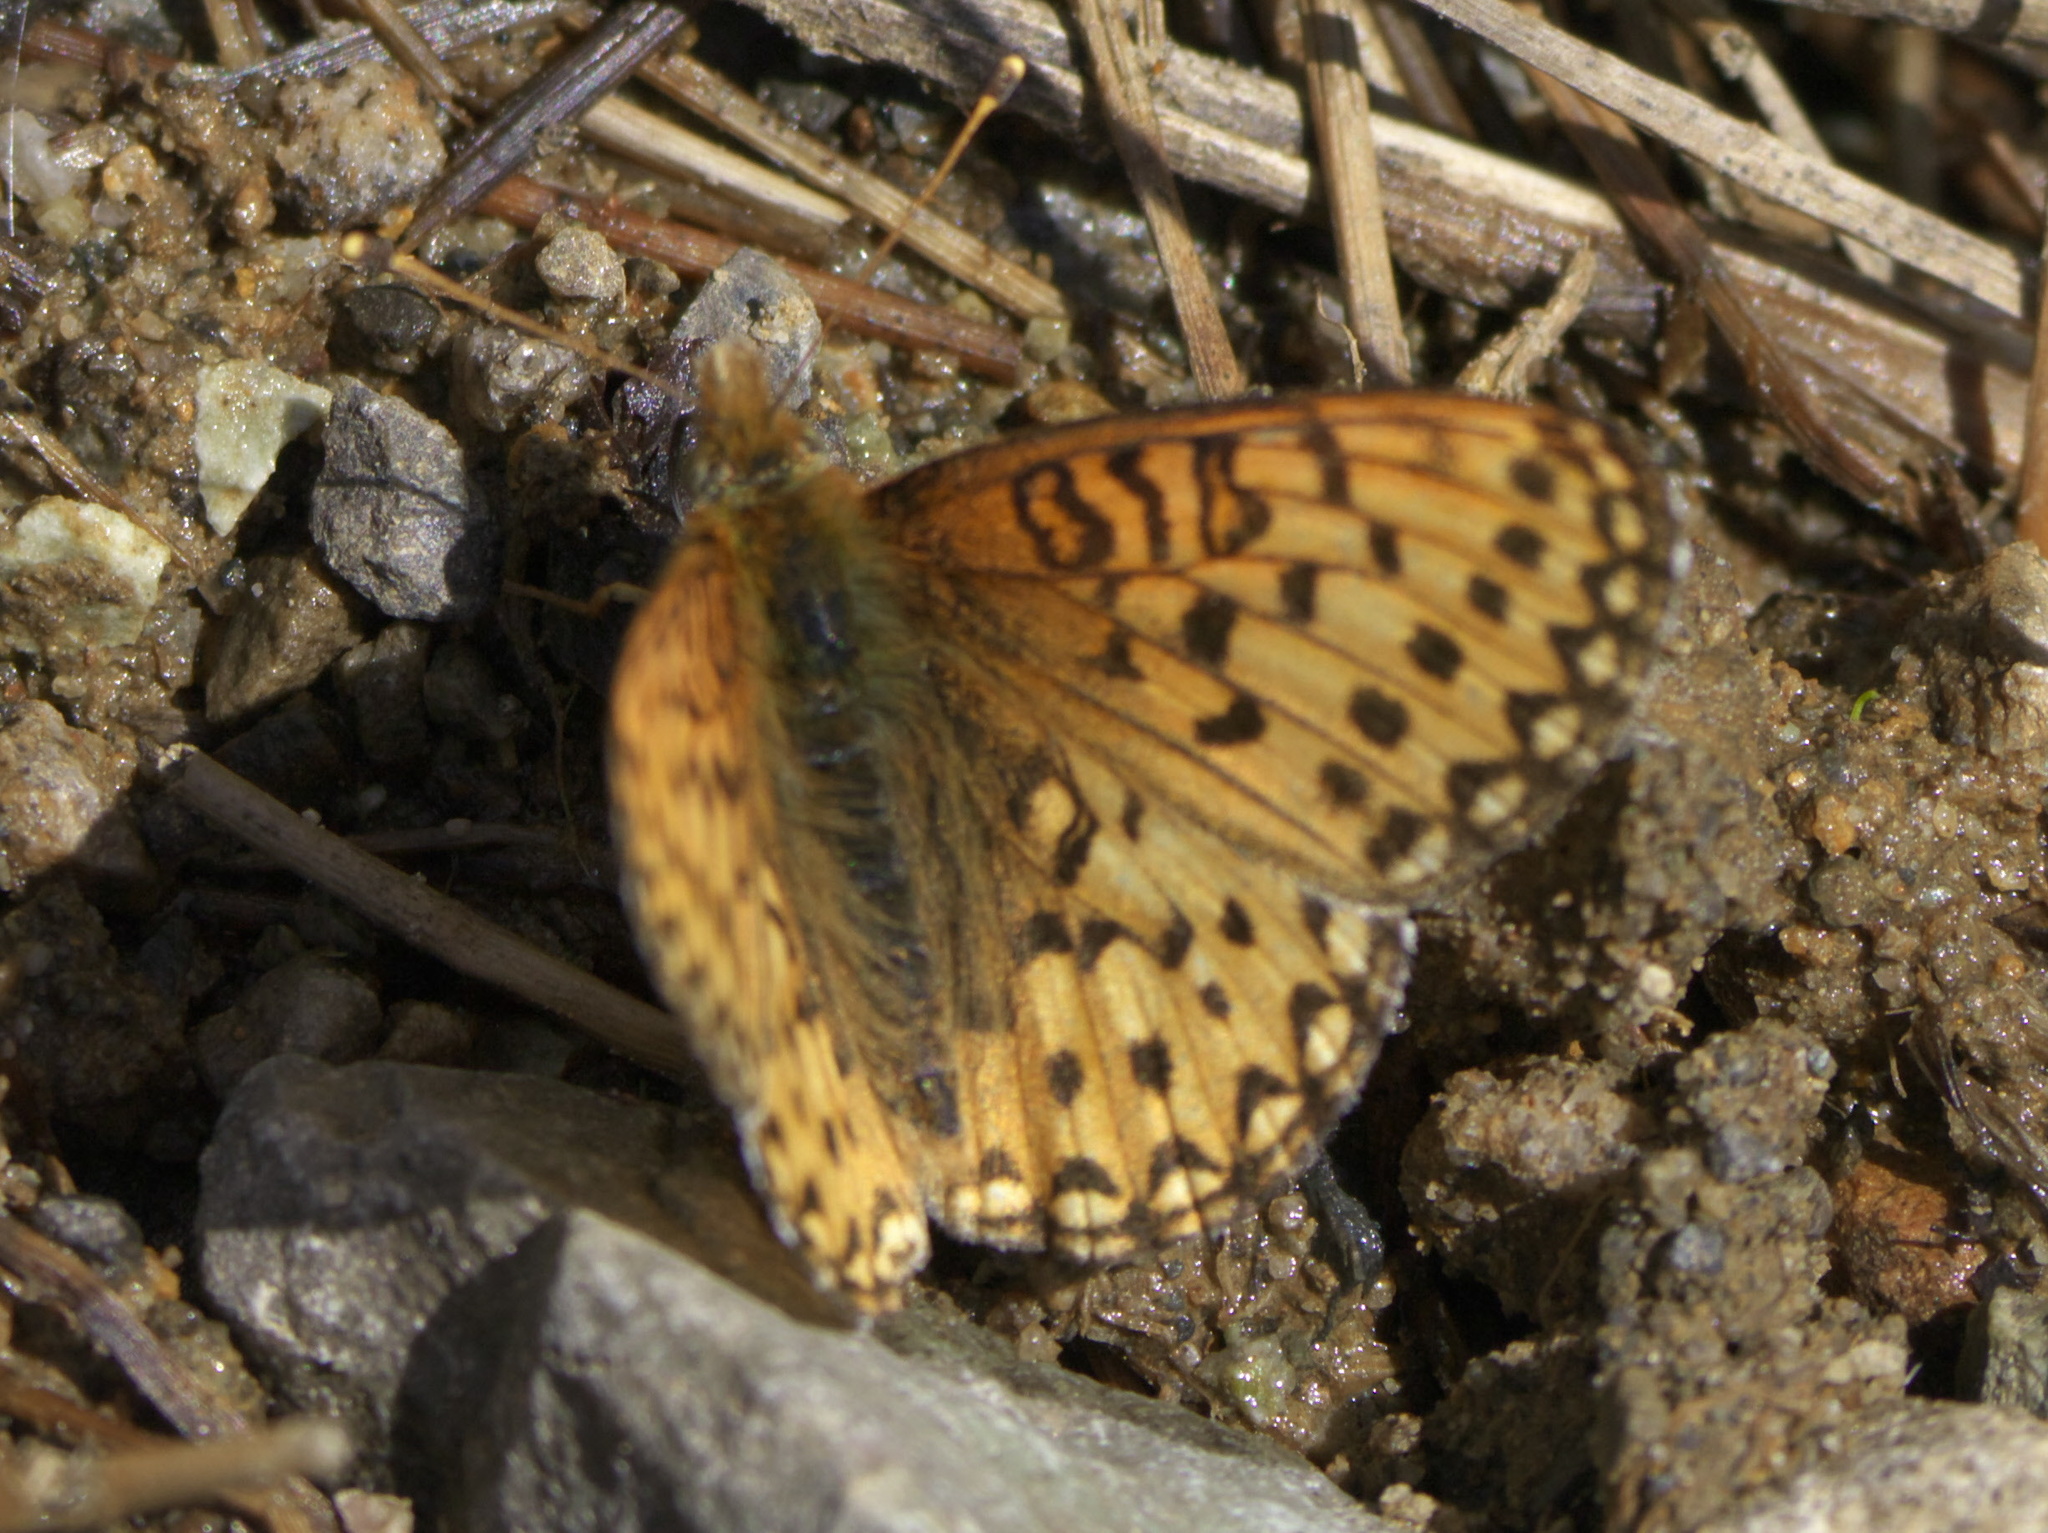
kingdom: Animalia
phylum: Arthropoda
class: Insecta
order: Lepidoptera
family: Nymphalidae
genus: Speyeria
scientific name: Speyeria mormonia
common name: Mormon fritillary
